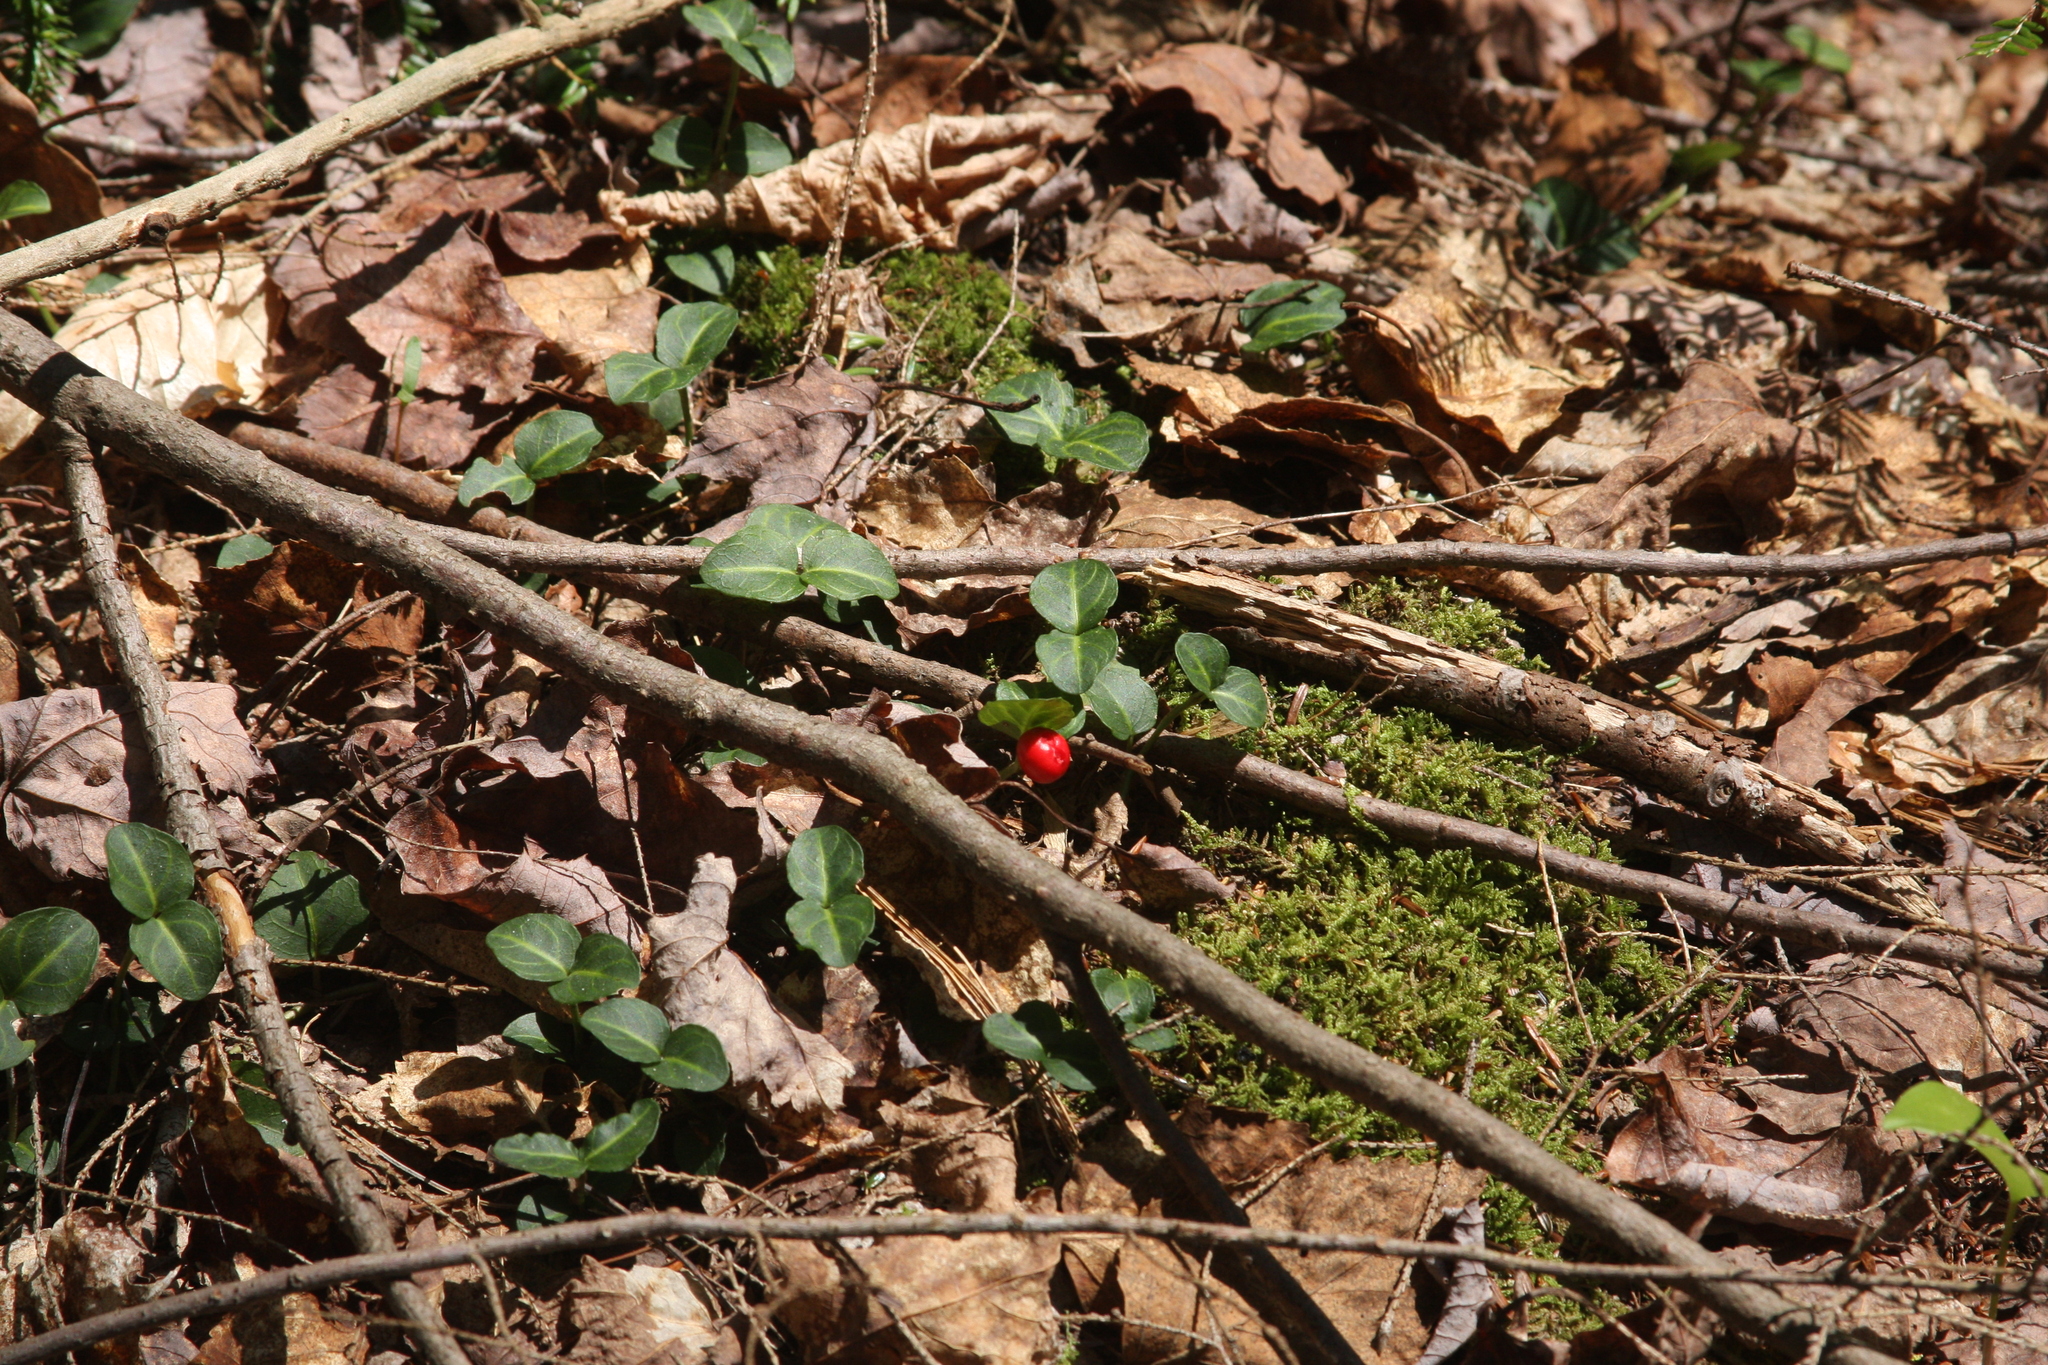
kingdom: Plantae
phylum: Tracheophyta
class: Magnoliopsida
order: Gentianales
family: Rubiaceae
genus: Mitchella
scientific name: Mitchella repens
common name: Partridge-berry
